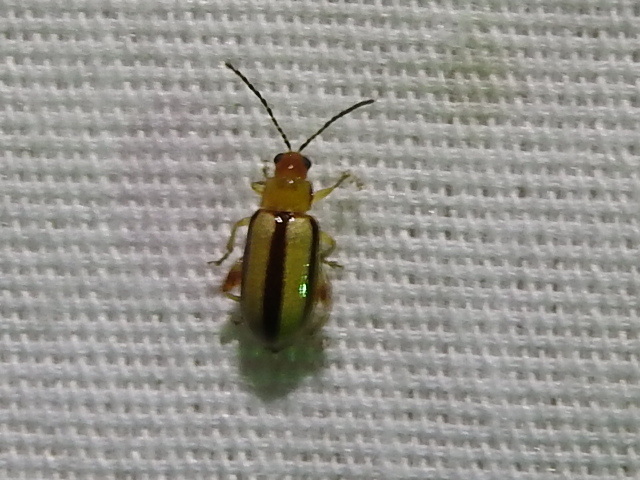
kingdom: Animalia
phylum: Arthropoda
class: Insecta
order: Coleoptera
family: Chrysomelidae
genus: Systena
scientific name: Systena gracilenta
